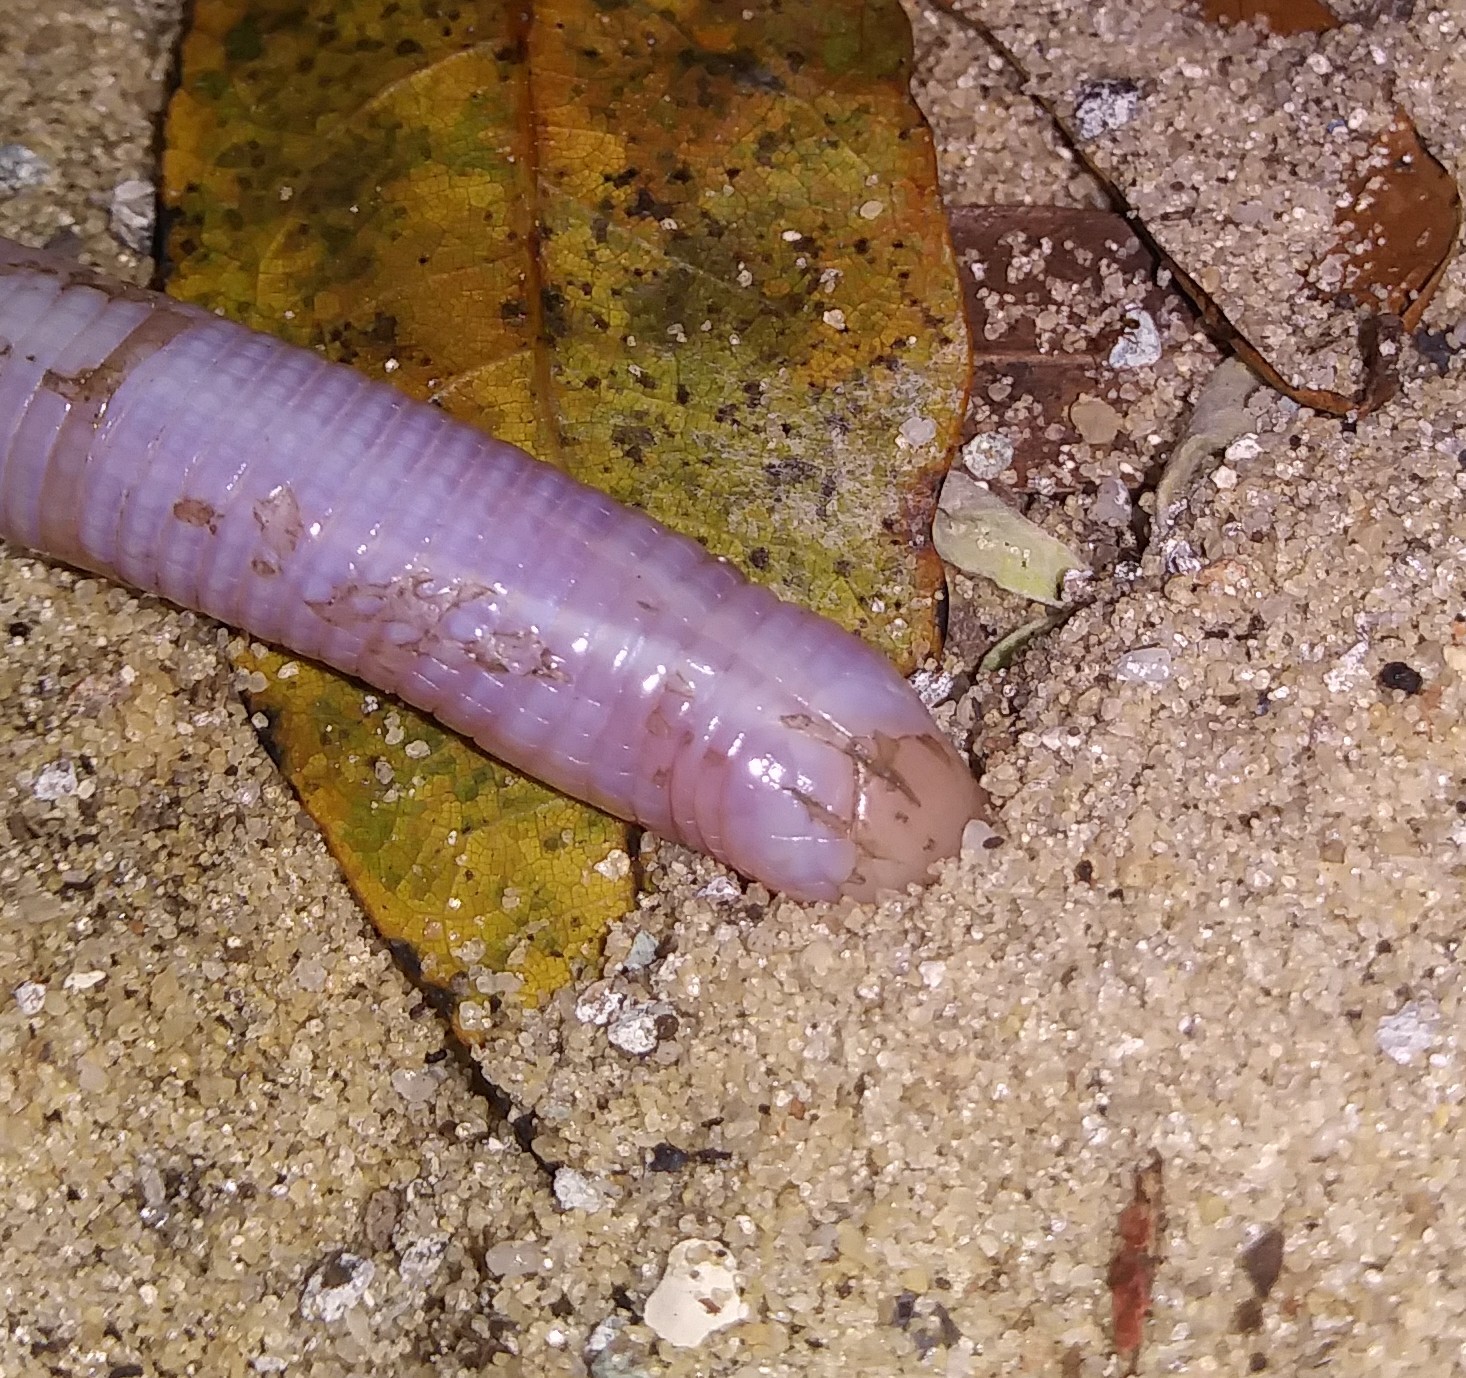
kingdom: Animalia
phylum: Chordata
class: Squamata
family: Rhineuridae
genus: Rhineura
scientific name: Rhineura floridana
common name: Florida worm lizard
